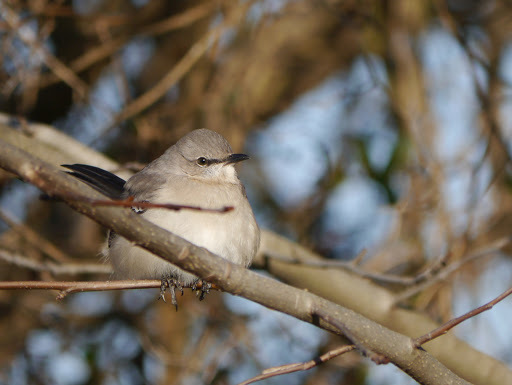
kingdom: Animalia
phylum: Chordata
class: Aves
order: Passeriformes
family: Mimidae
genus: Mimus
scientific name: Mimus polyglottos
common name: Northern mockingbird
